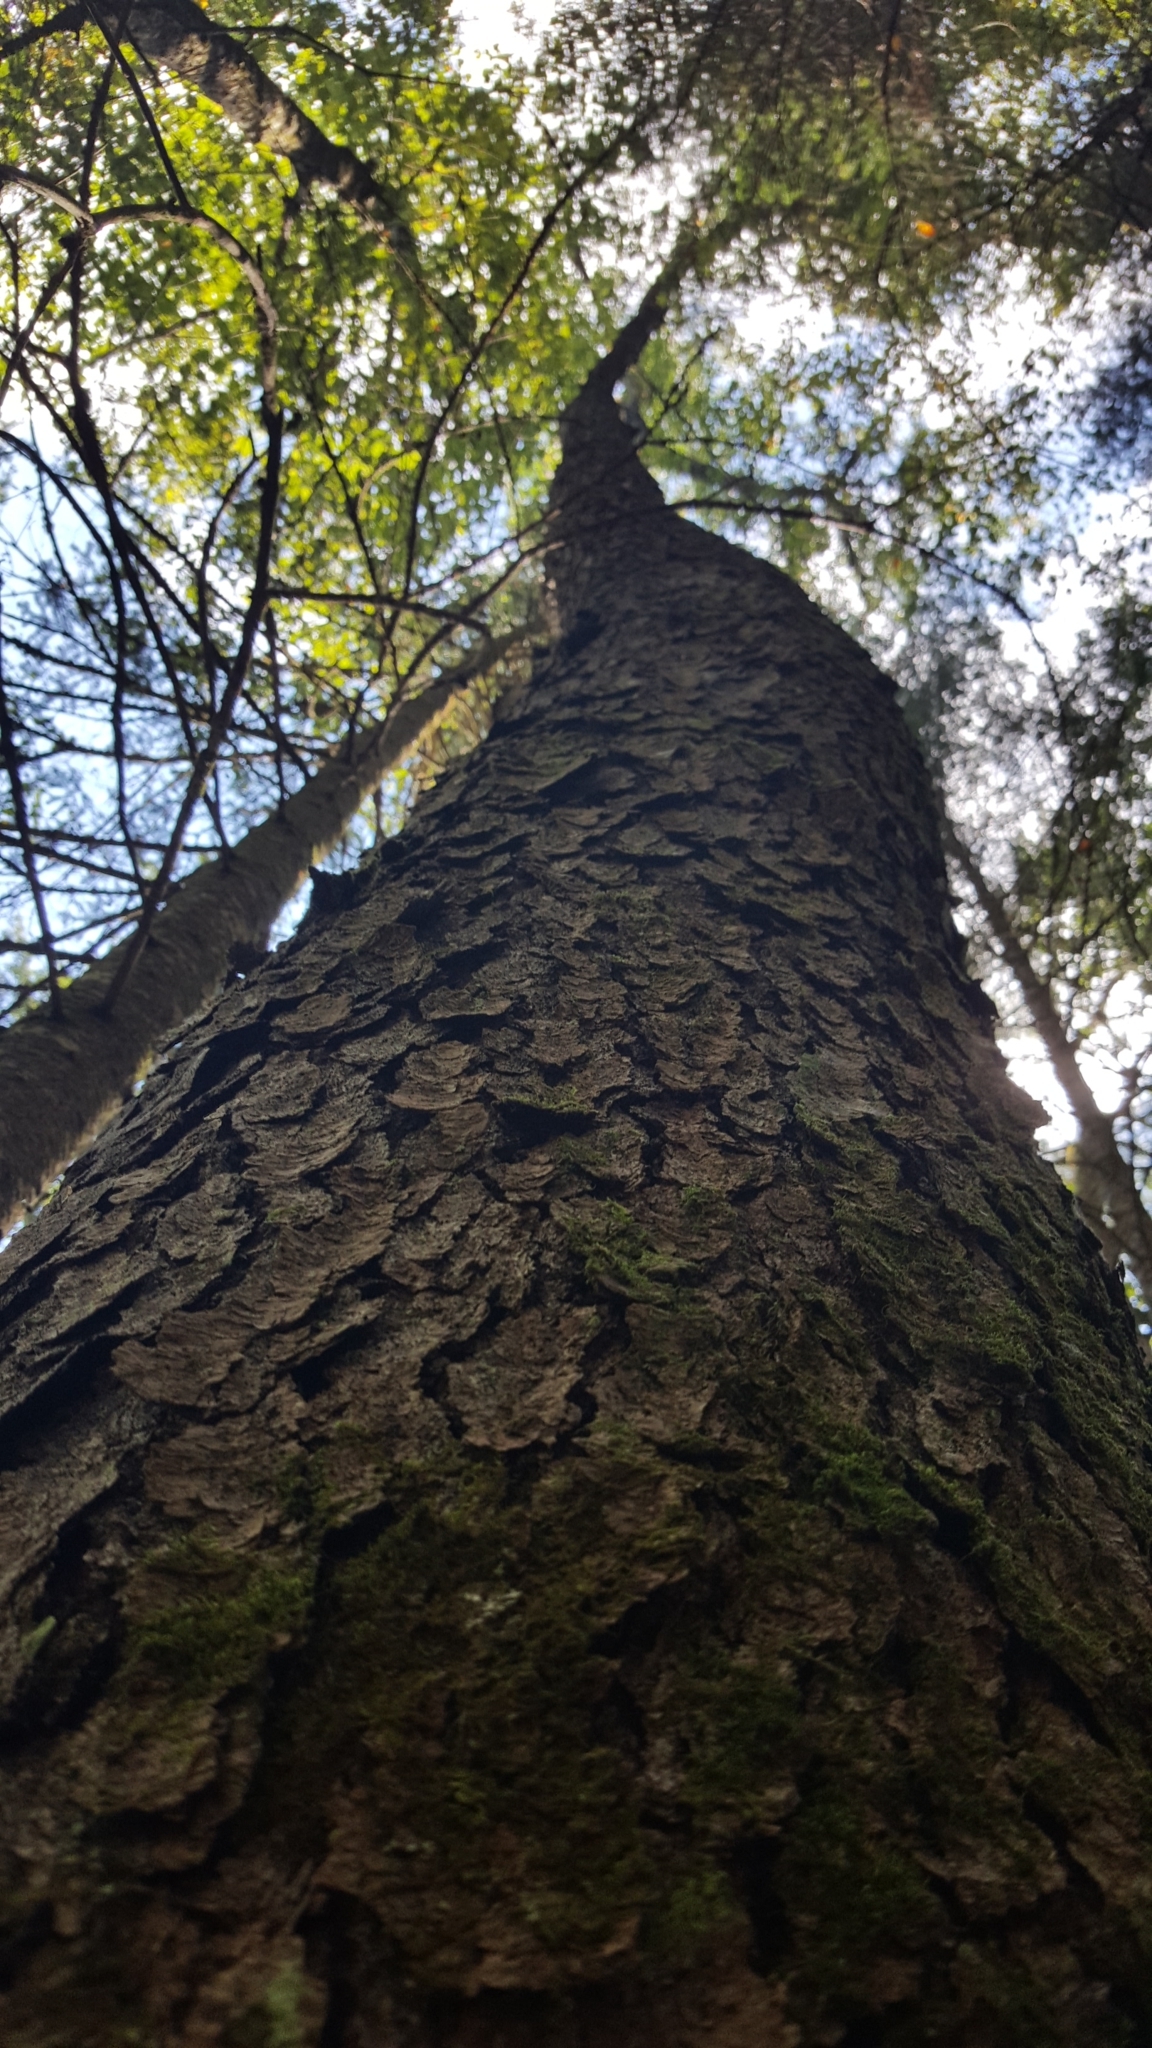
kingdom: Plantae
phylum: Tracheophyta
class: Magnoliopsida
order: Rosales
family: Rosaceae
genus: Prunus
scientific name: Prunus serotina
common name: Black cherry
